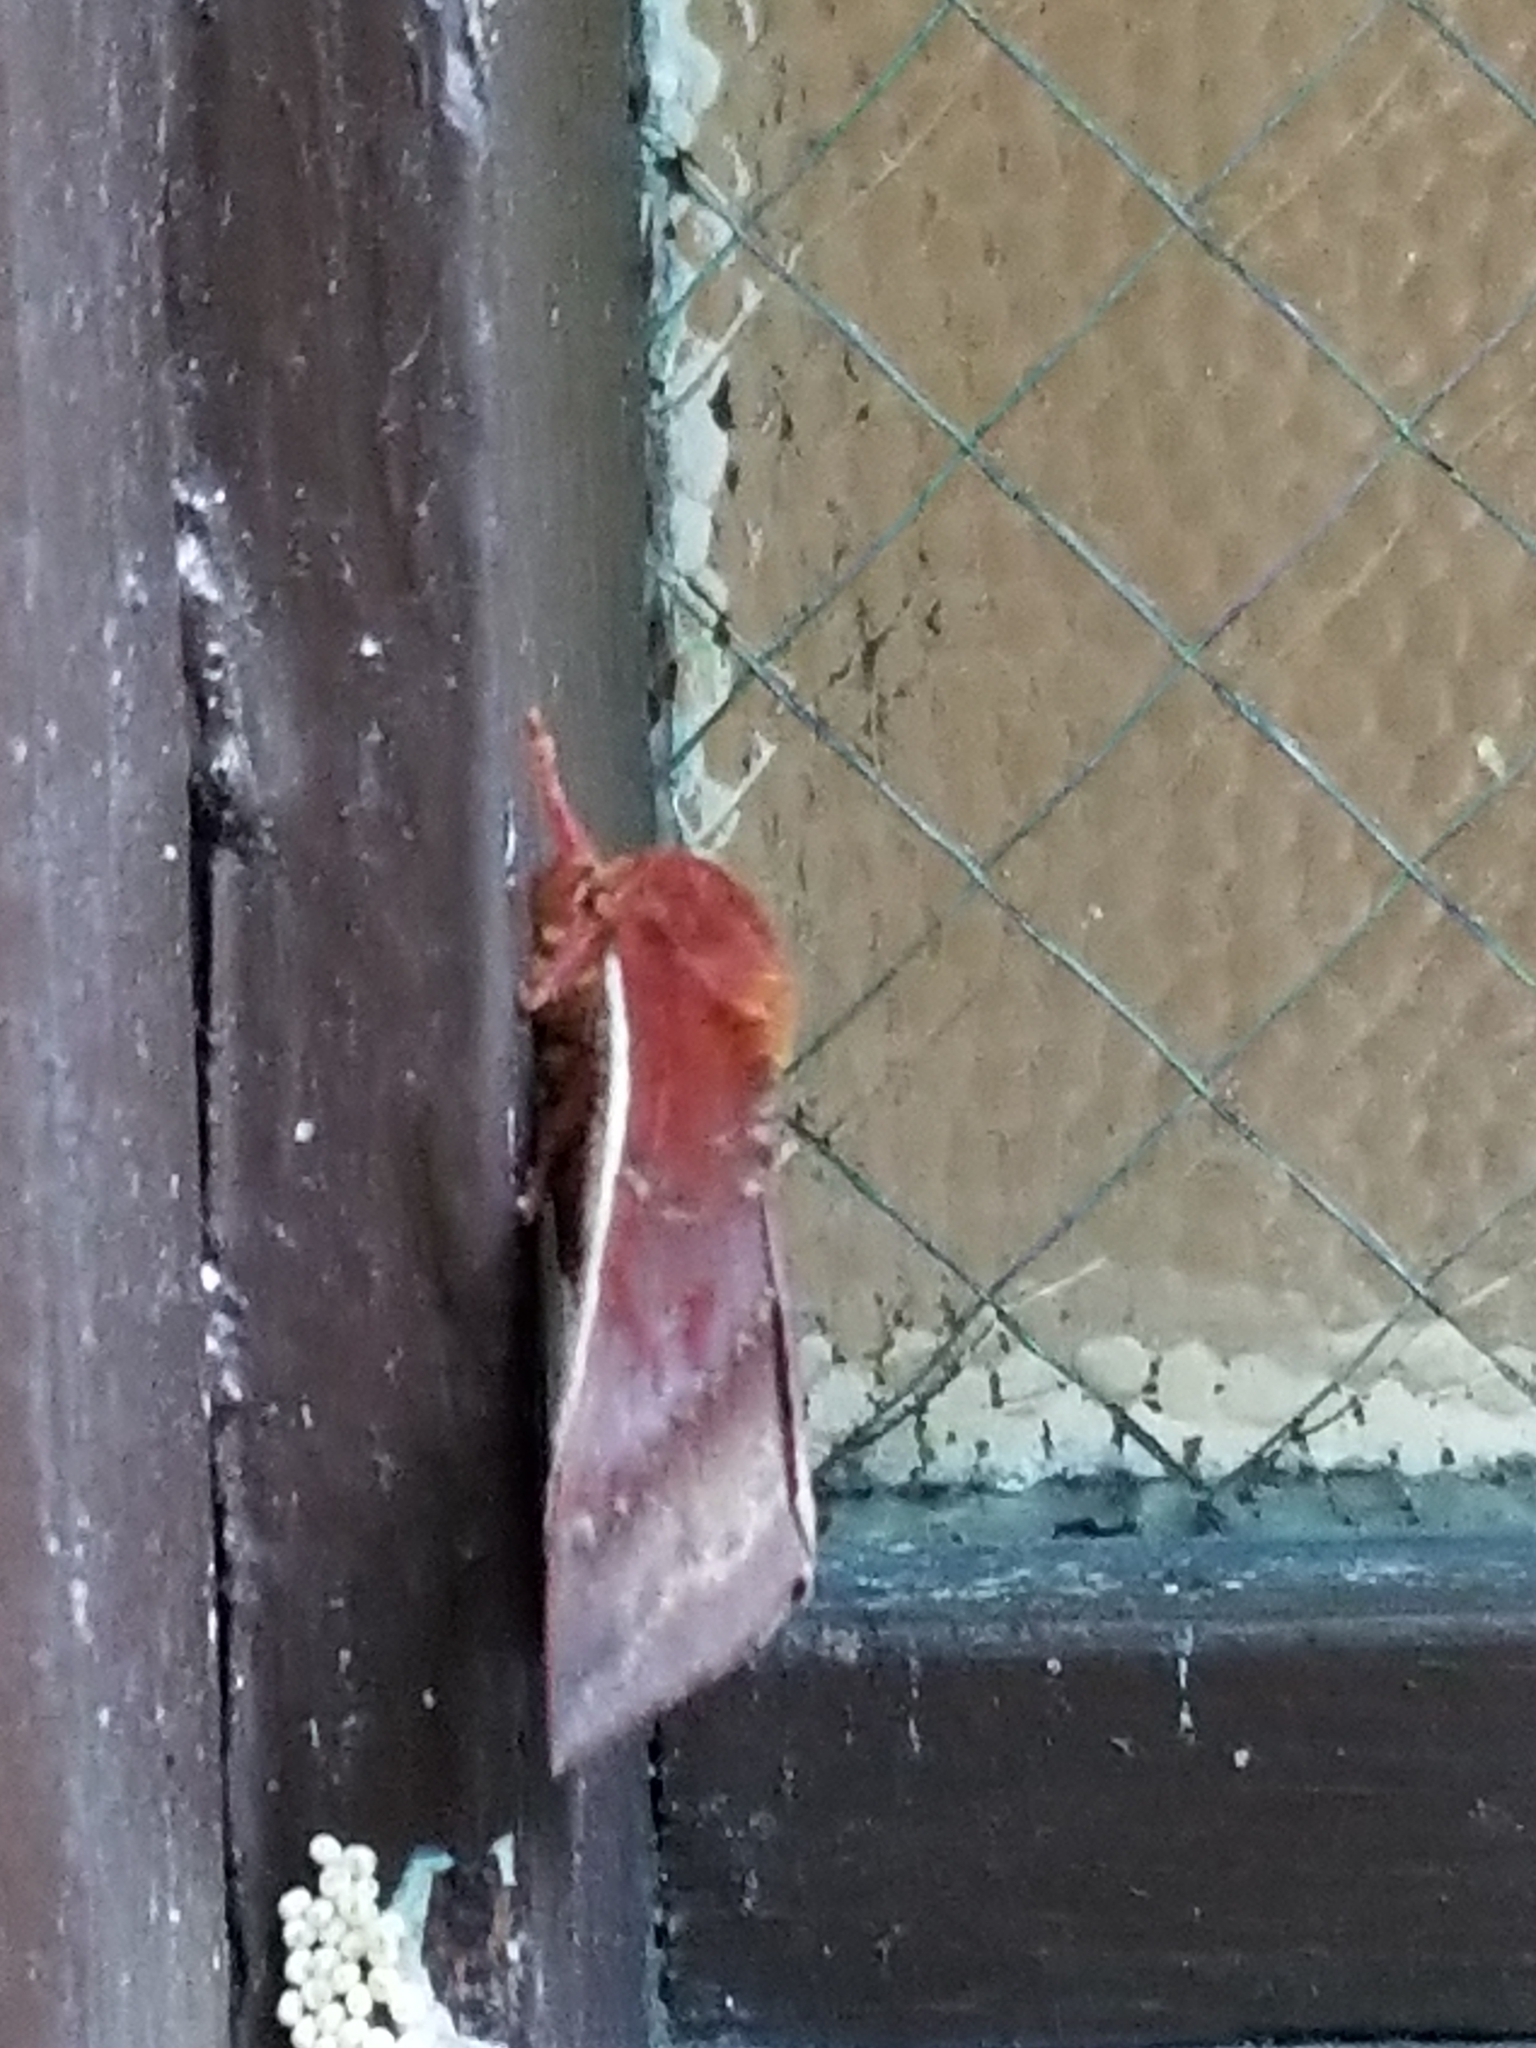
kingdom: Animalia
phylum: Arthropoda
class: Insecta
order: Lepidoptera
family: Saturniidae
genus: Automeris
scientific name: Automeris io
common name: Io moth
